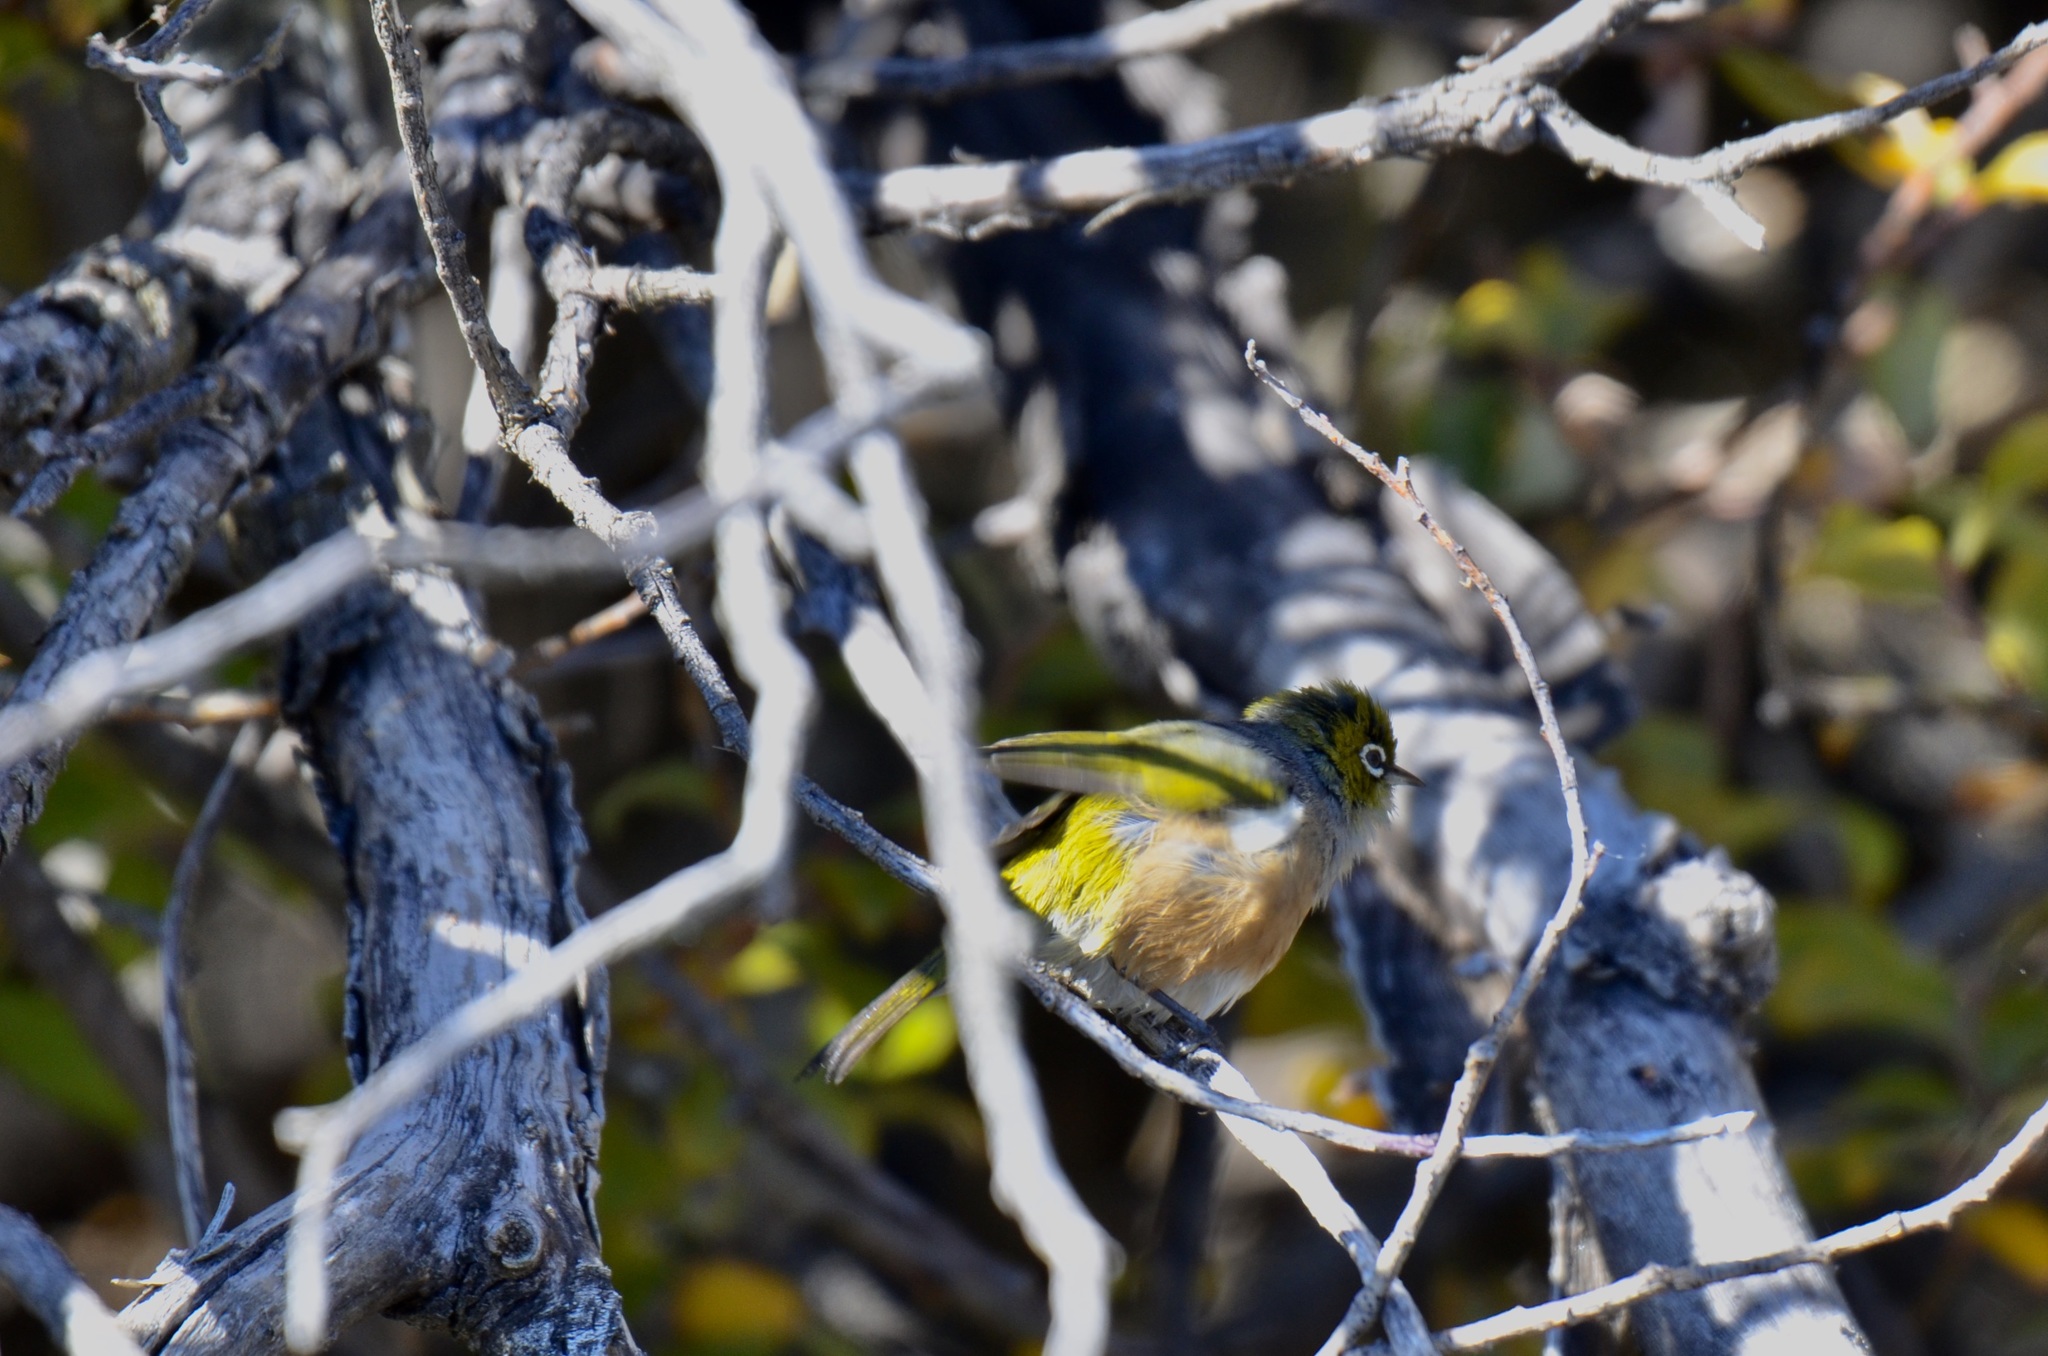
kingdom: Animalia
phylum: Chordata
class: Aves
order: Passeriformes
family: Zosteropidae
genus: Zosterops
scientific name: Zosterops lateralis
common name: Silvereye
